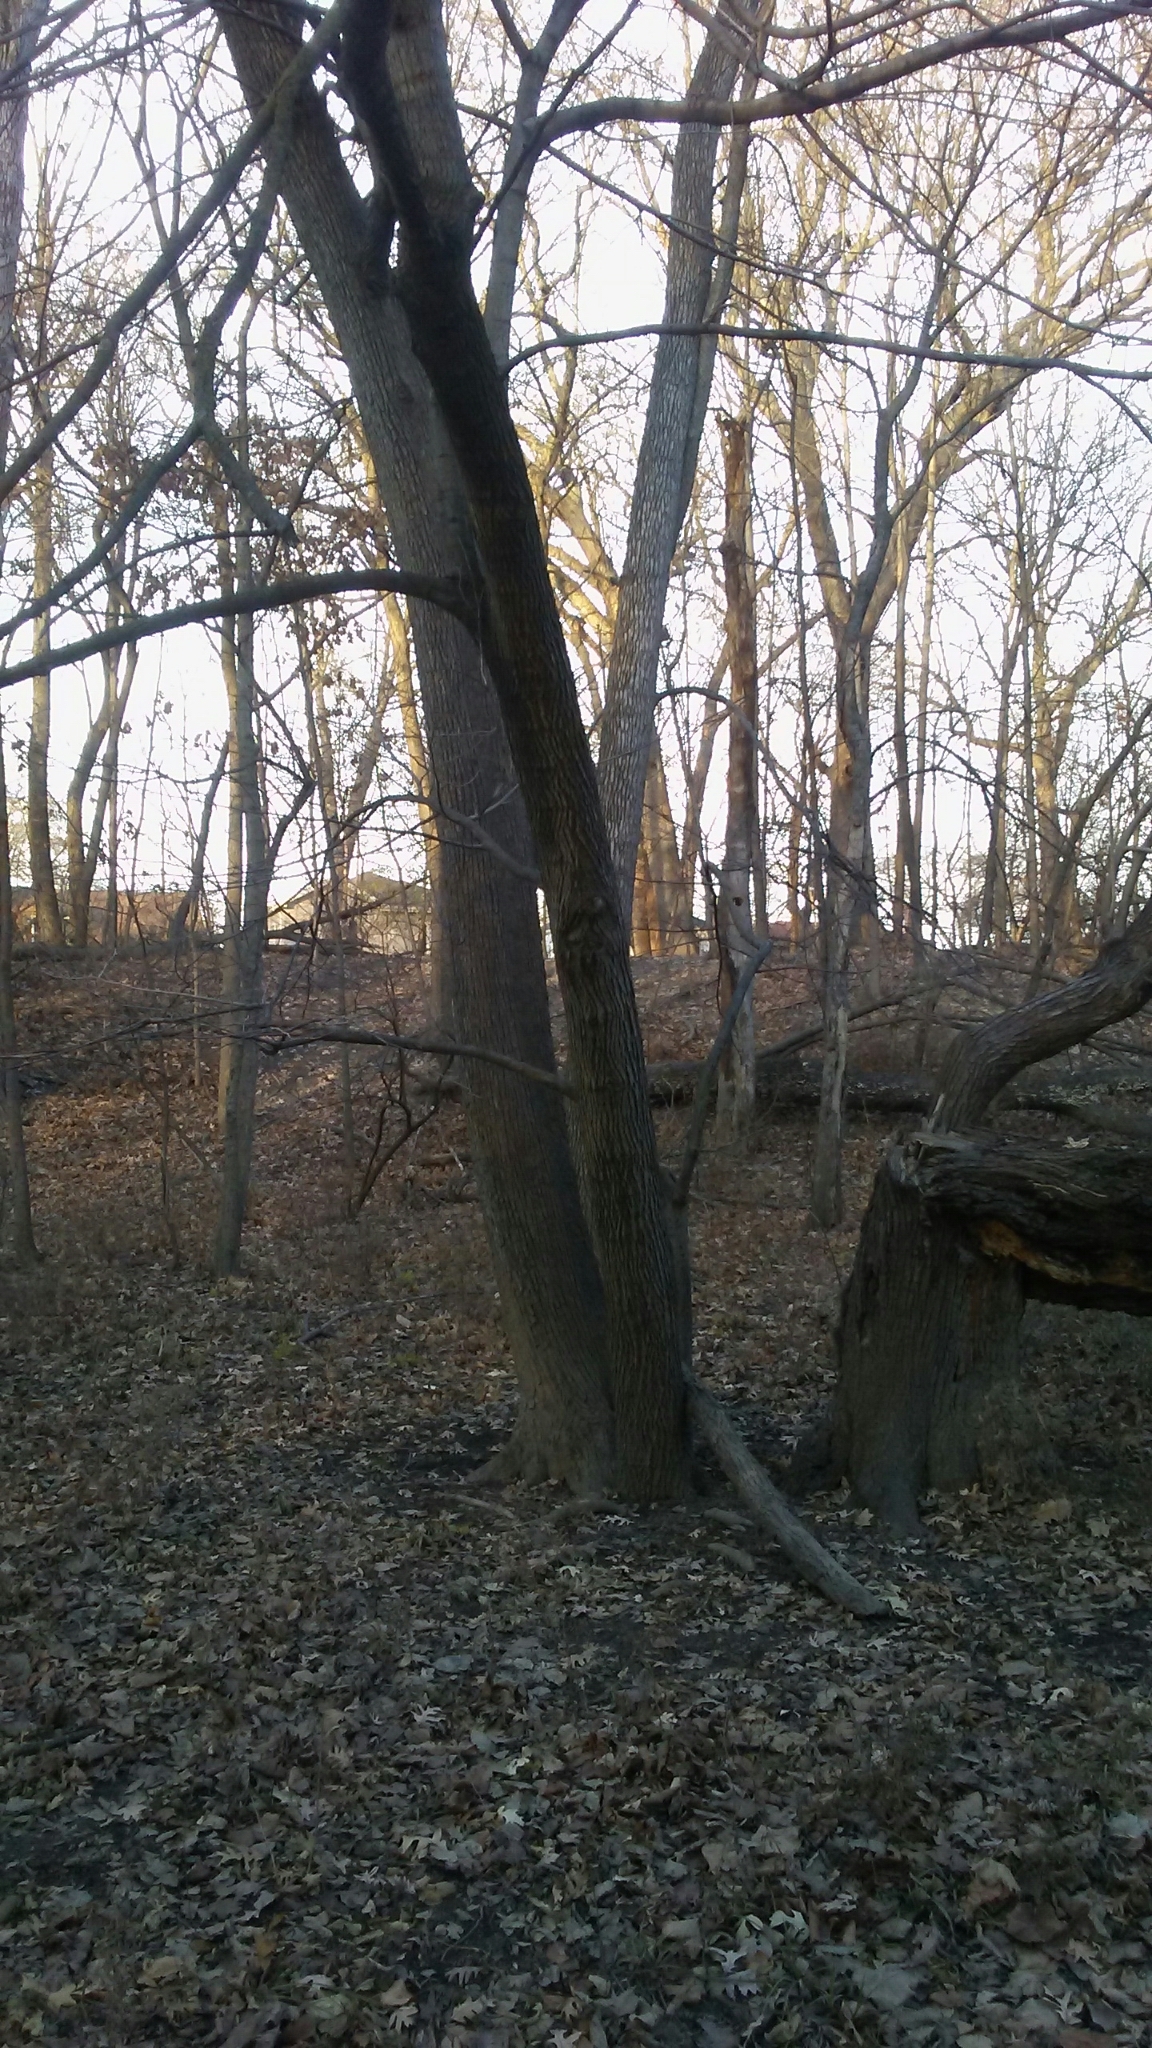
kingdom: Plantae
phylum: Tracheophyta
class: Magnoliopsida
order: Malvales
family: Malvaceae
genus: Tilia
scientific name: Tilia americana
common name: Basswood
